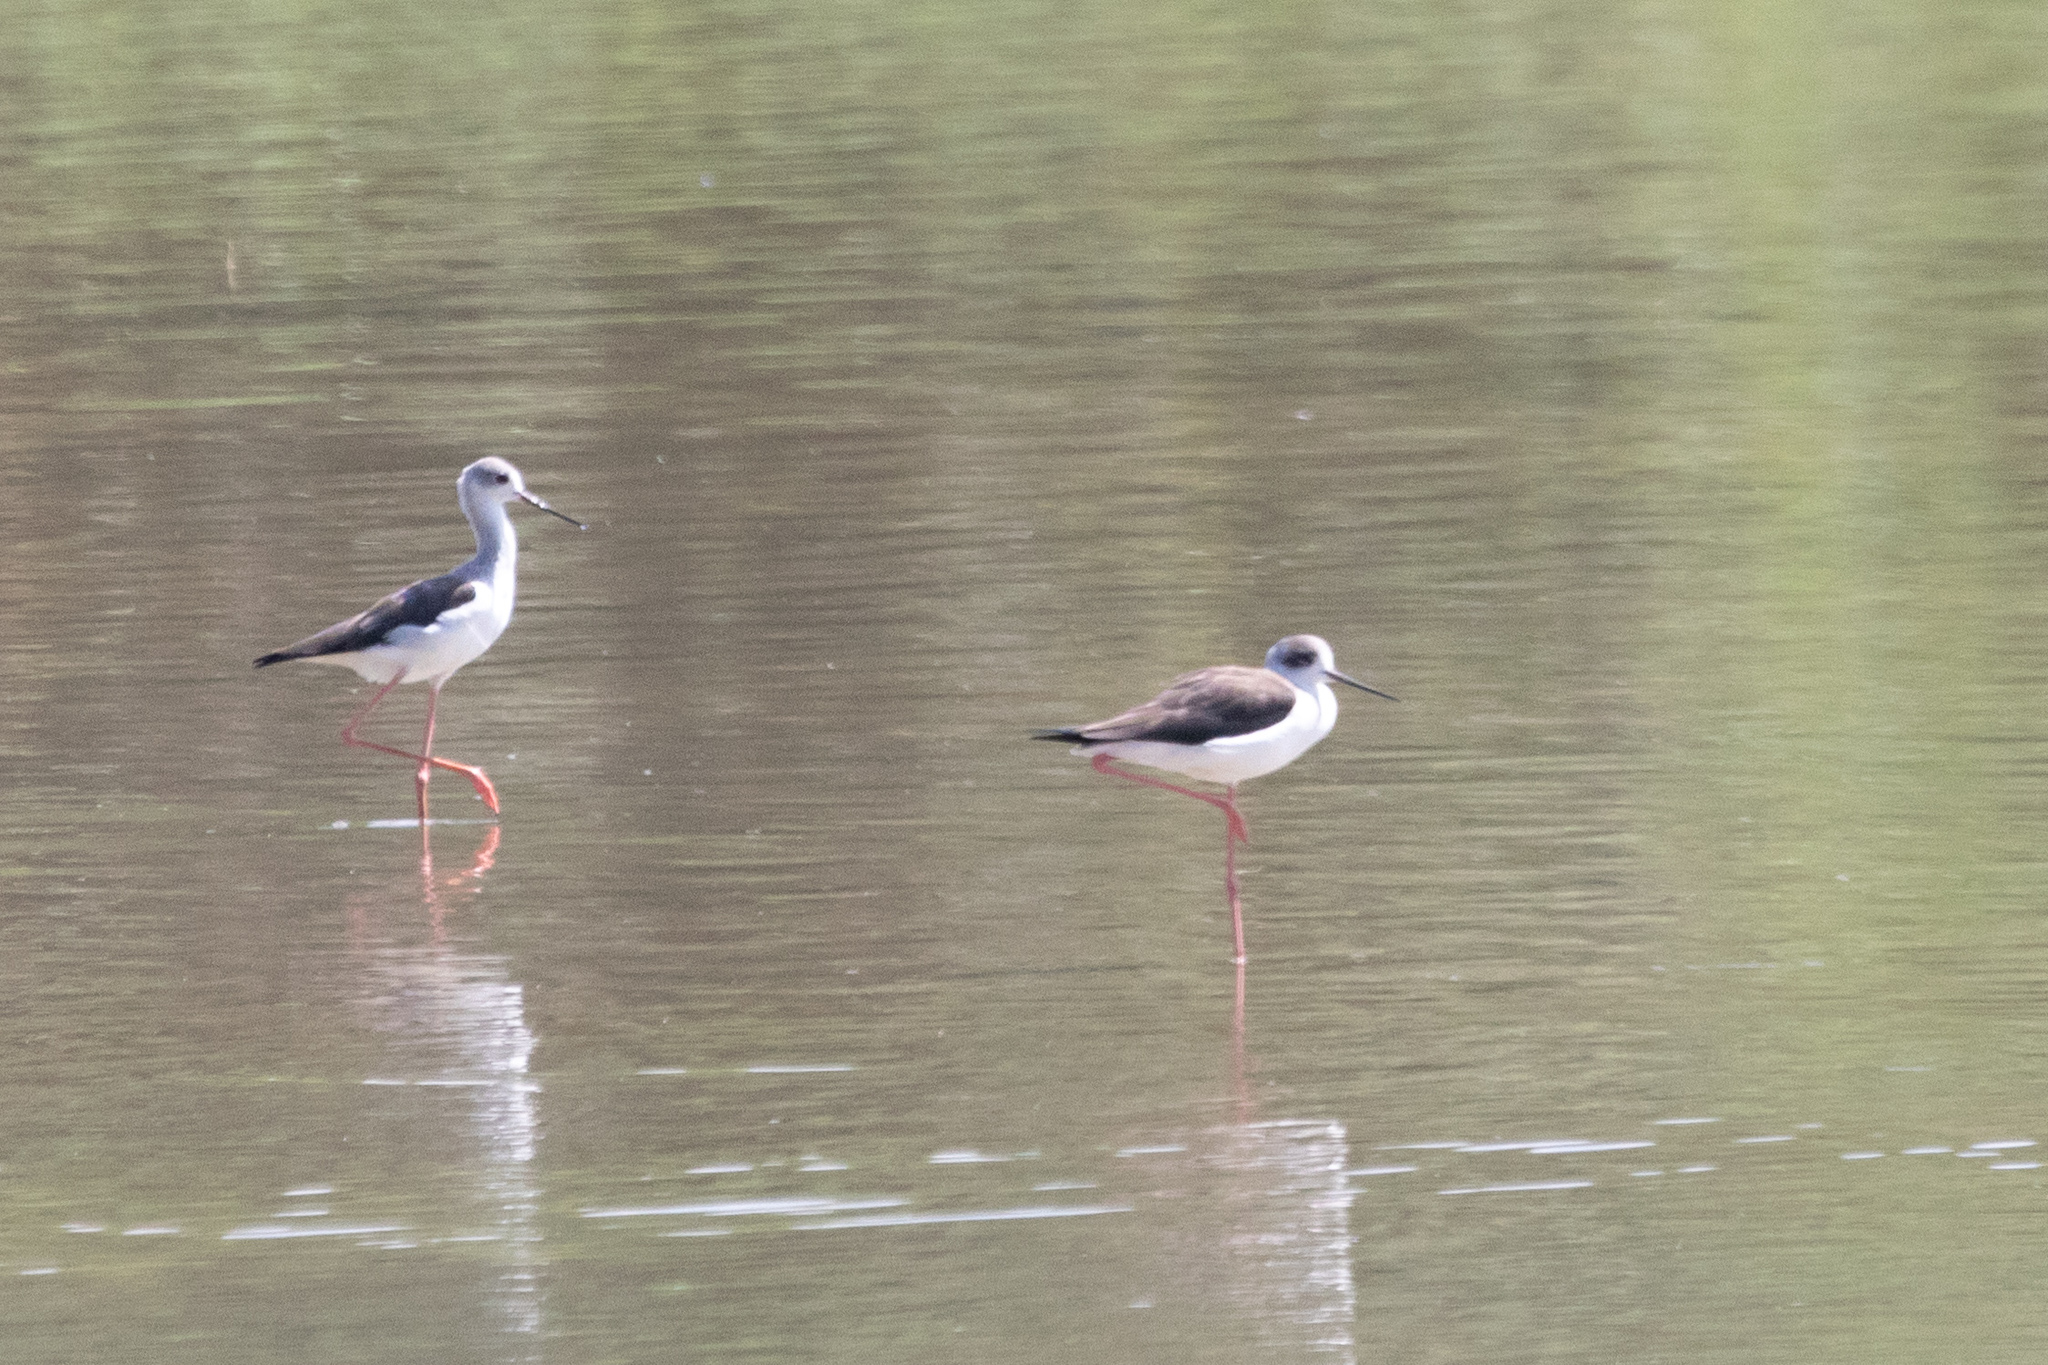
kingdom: Animalia
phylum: Chordata
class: Aves
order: Charadriiformes
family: Recurvirostridae
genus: Himantopus
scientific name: Himantopus himantopus
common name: Black-winged stilt
